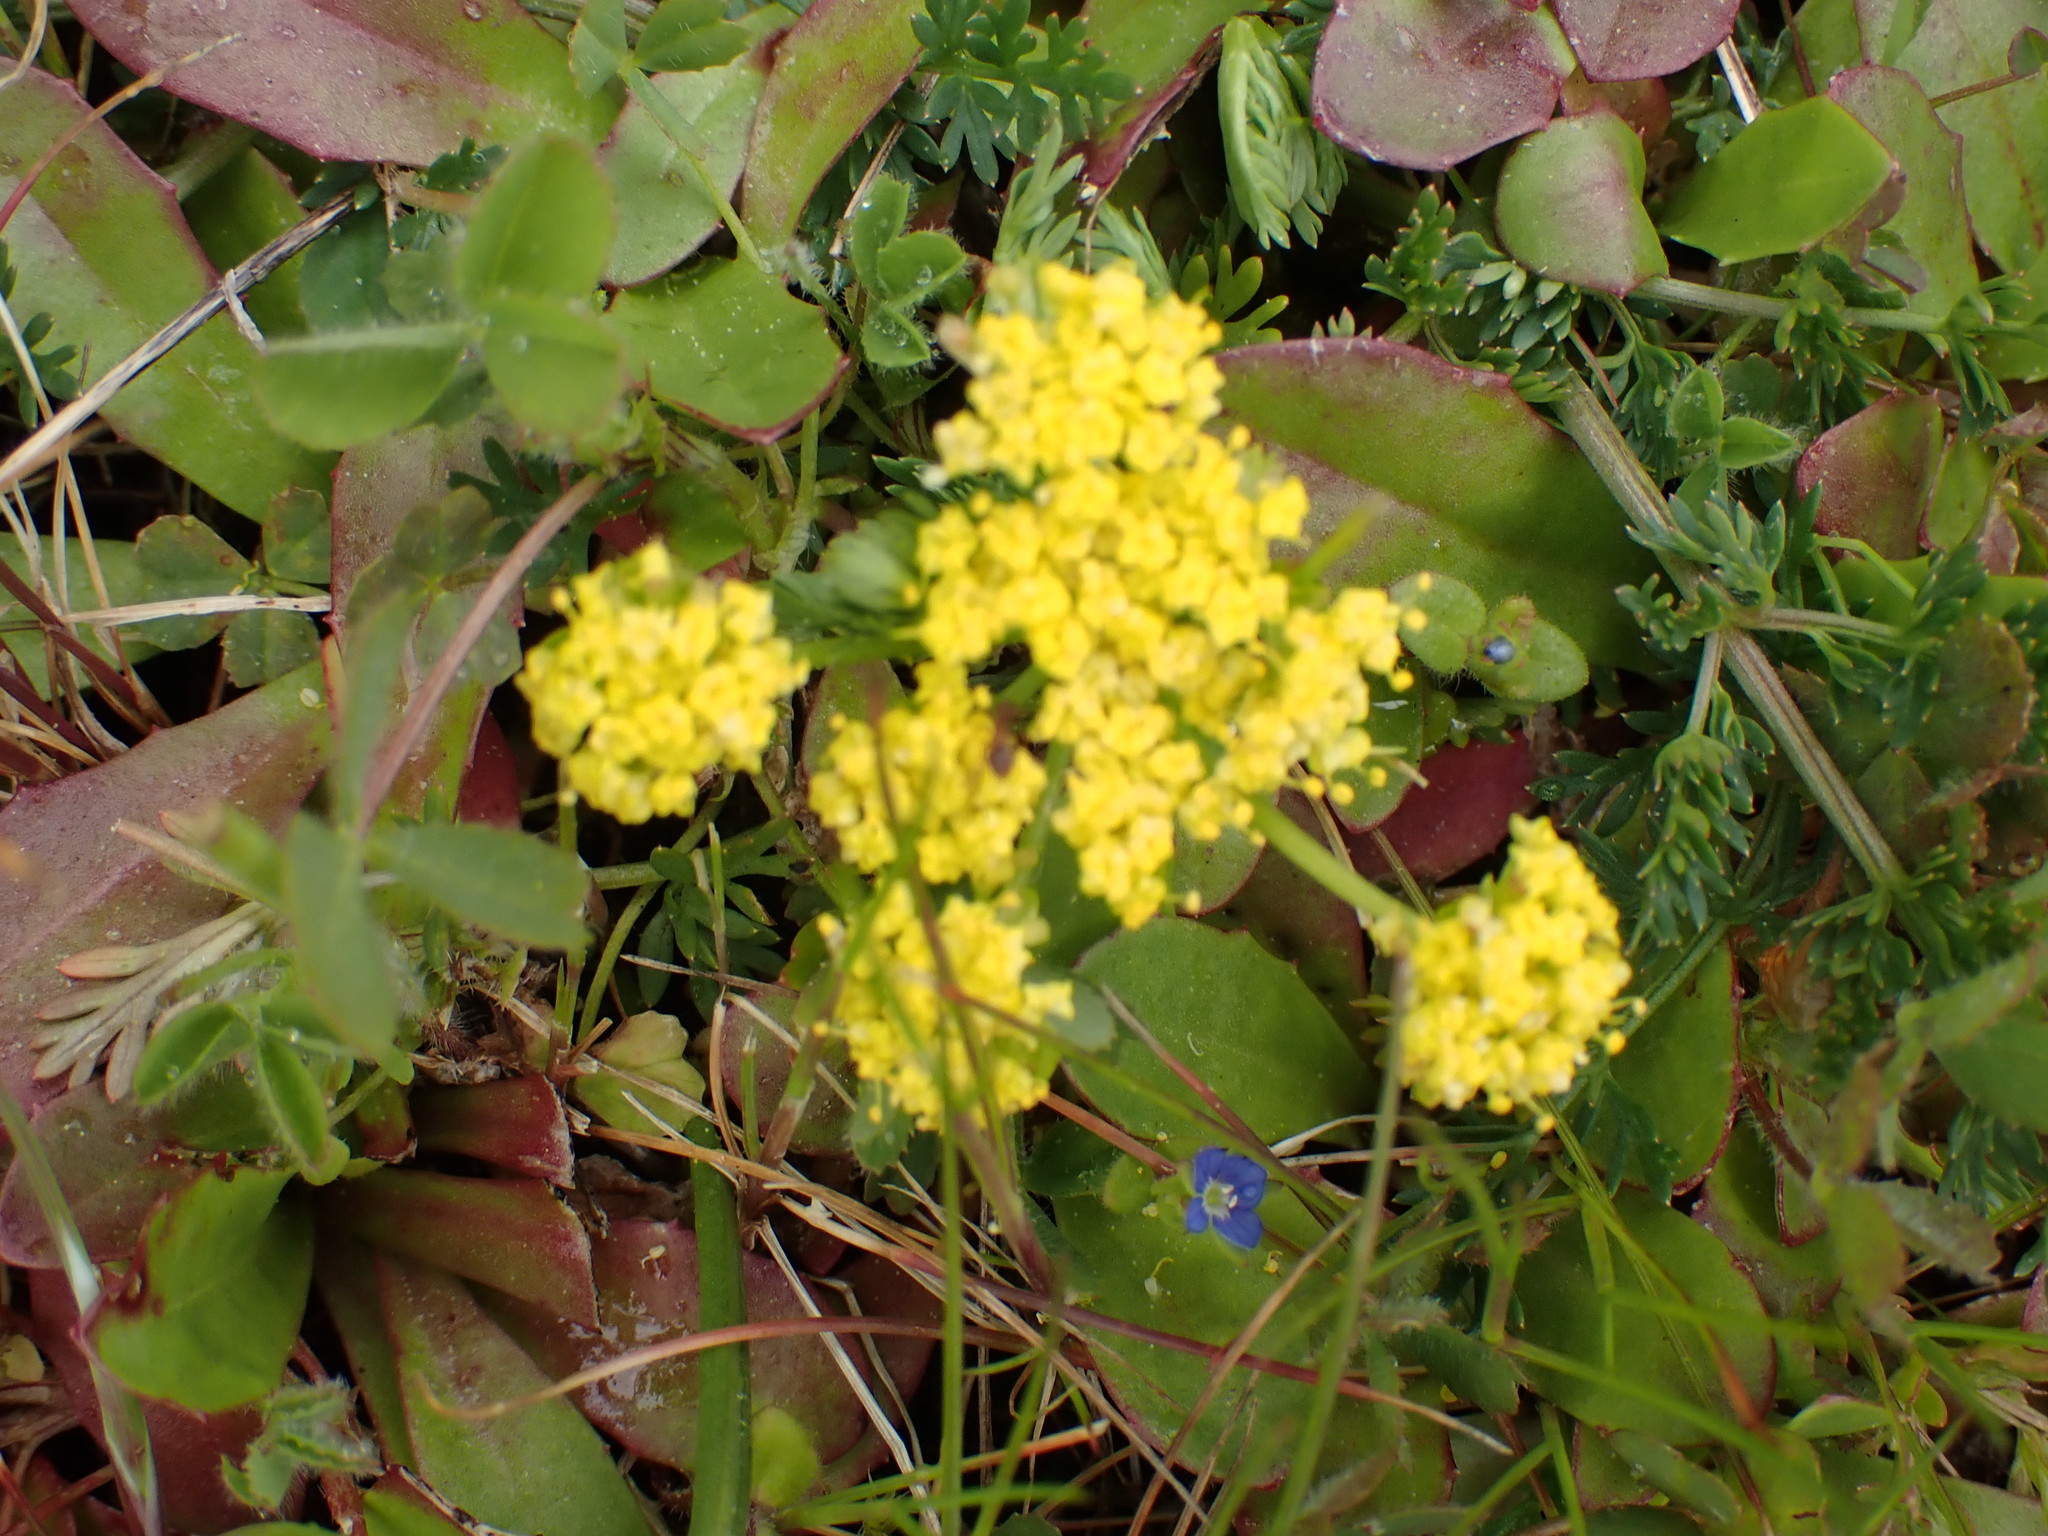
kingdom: Plantae
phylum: Tracheophyta
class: Magnoliopsida
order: Apiales
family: Apiaceae
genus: Lomatium
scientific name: Lomatium utriculatum
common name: Fine-leaf desert-parsley
